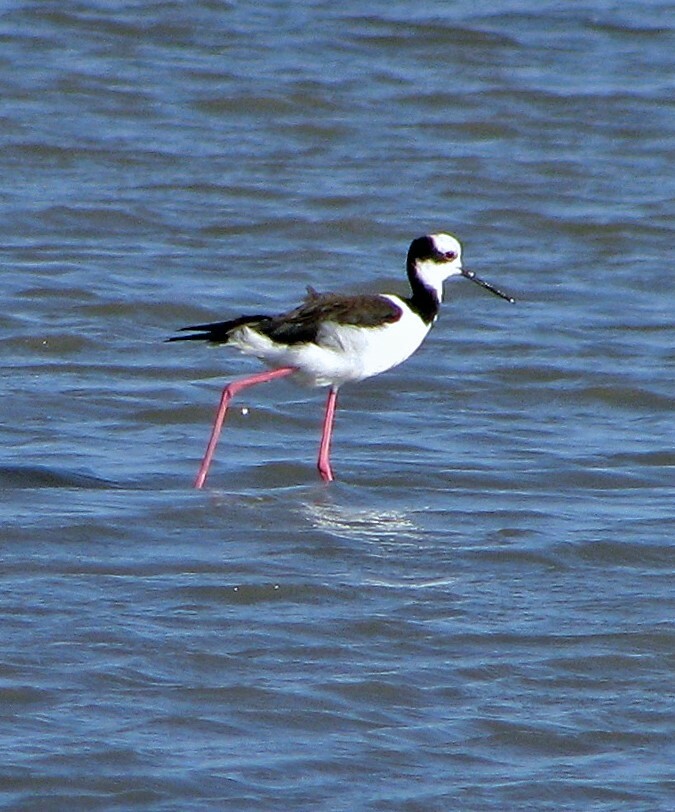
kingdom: Animalia
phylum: Chordata
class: Aves
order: Charadriiformes
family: Recurvirostridae
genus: Himantopus
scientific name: Himantopus mexicanus
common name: Black-necked stilt
